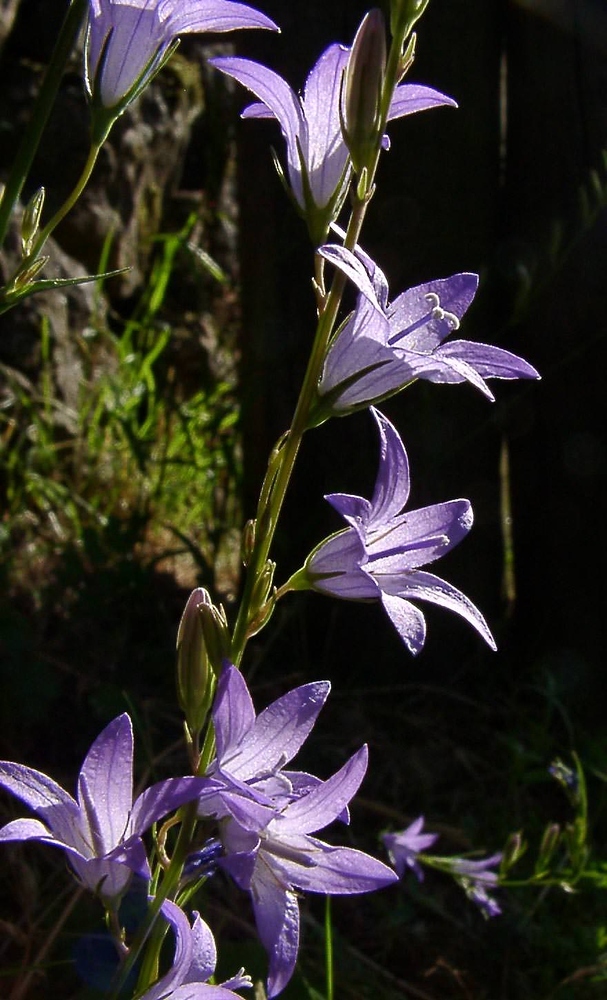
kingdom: Plantae
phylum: Tracheophyta
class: Magnoliopsida
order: Asterales
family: Campanulaceae
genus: Campanula
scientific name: Campanula rapunculus
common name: Rampion bellflower
